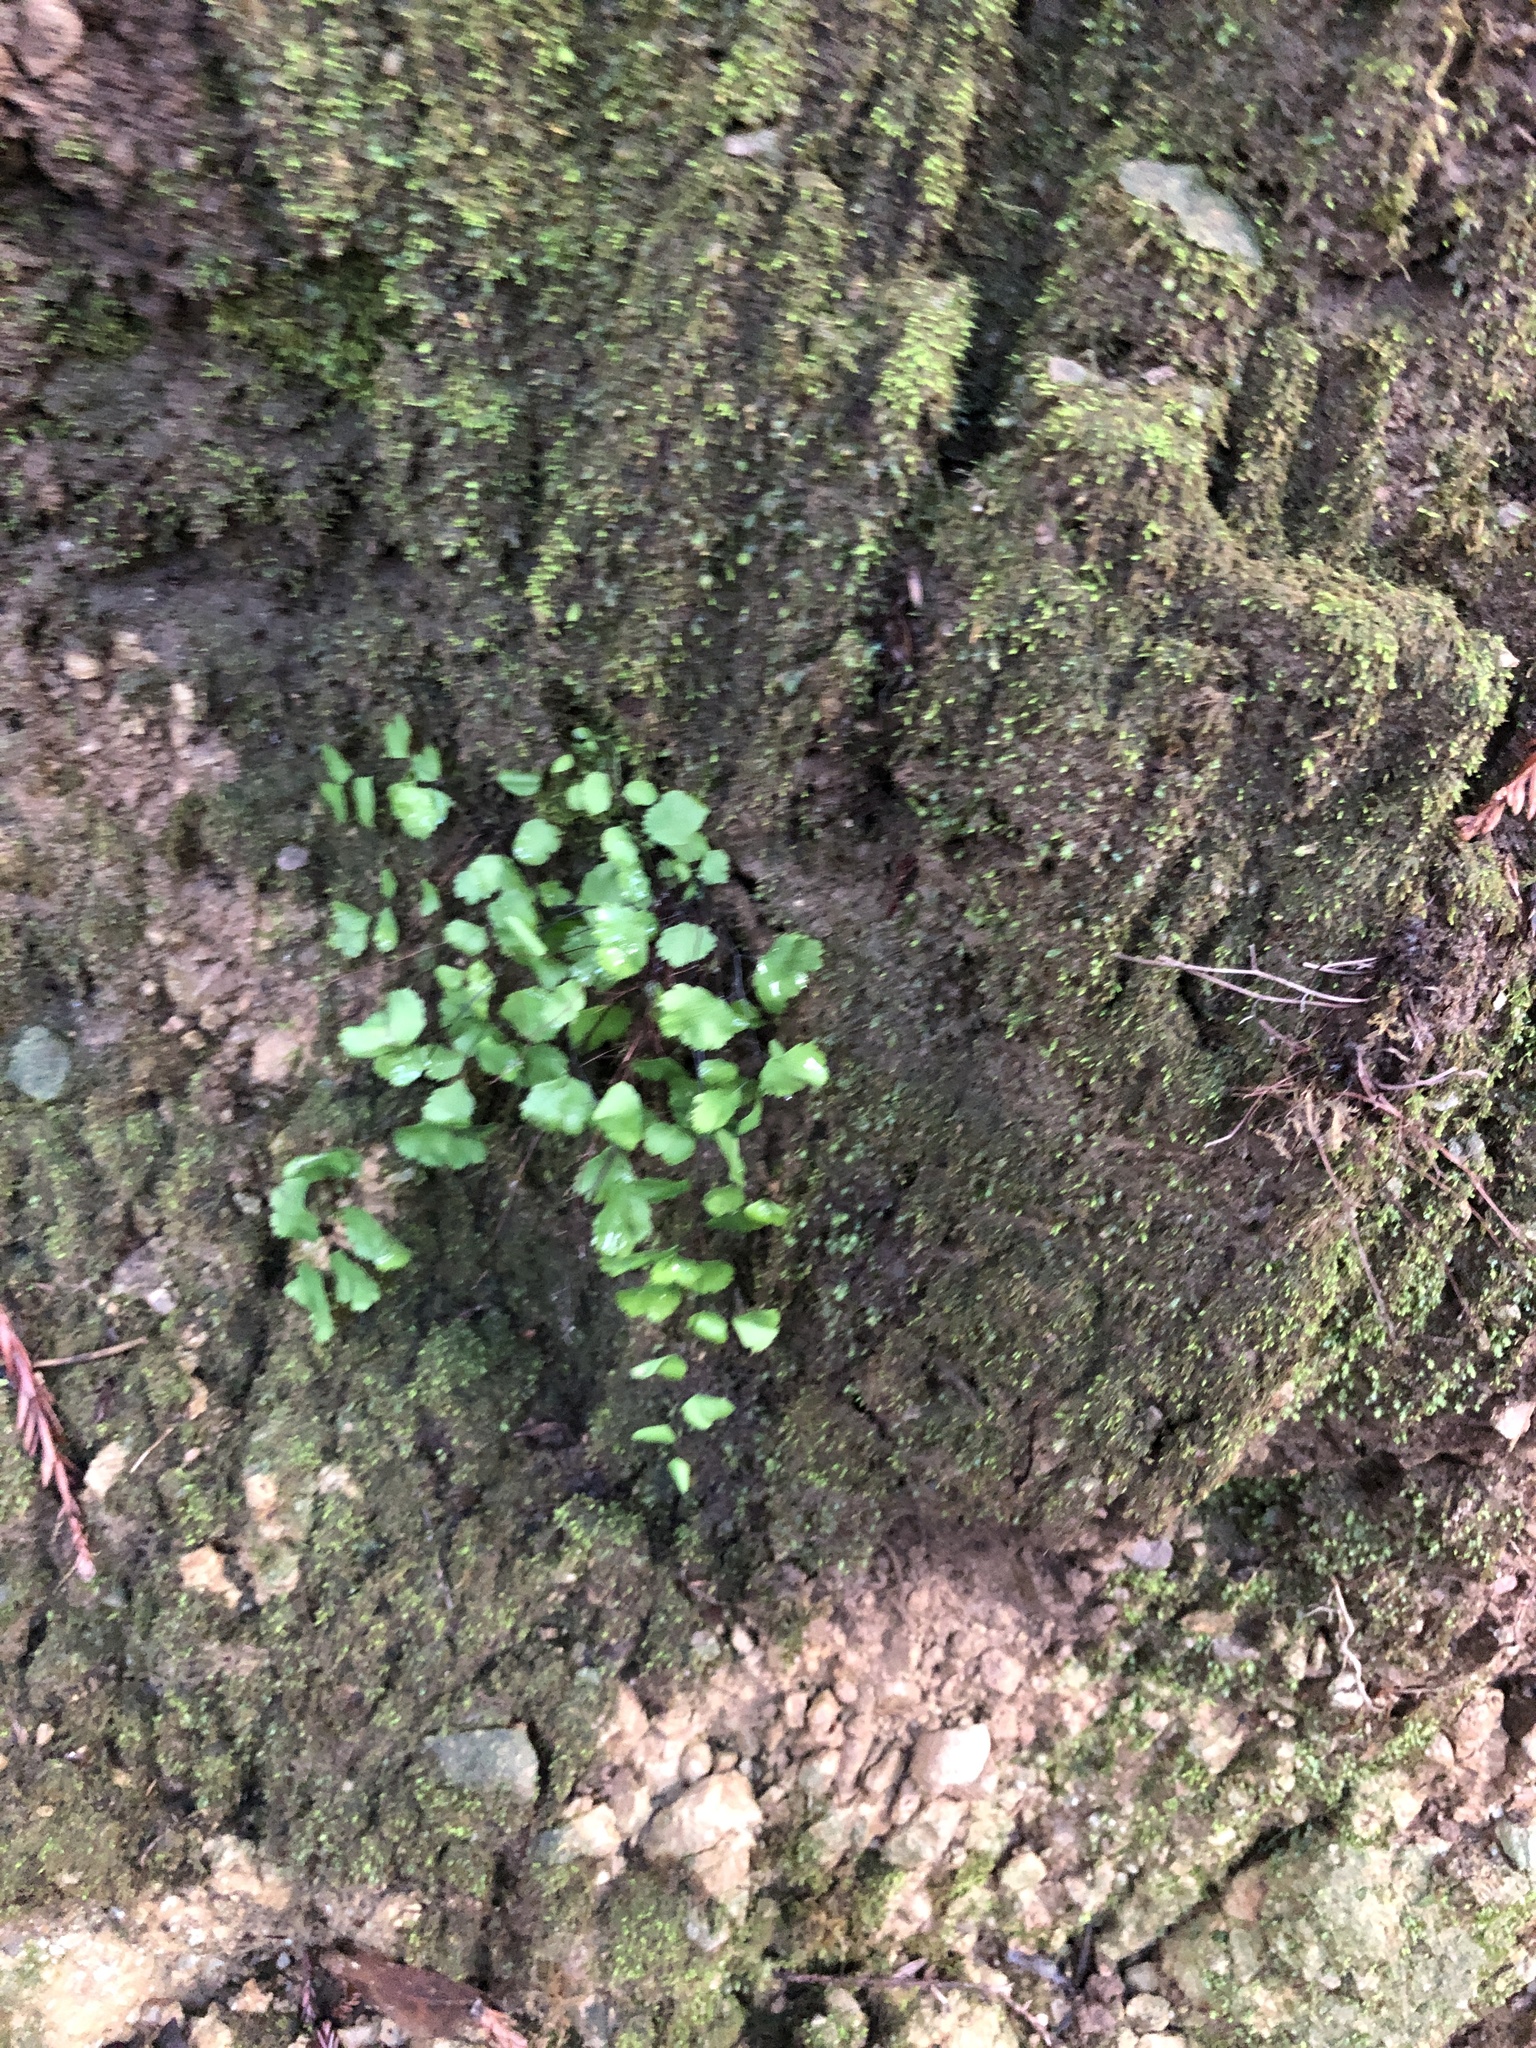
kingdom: Plantae
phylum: Tracheophyta
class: Polypodiopsida
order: Polypodiales
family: Pteridaceae
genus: Adiantum
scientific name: Adiantum jordanii
